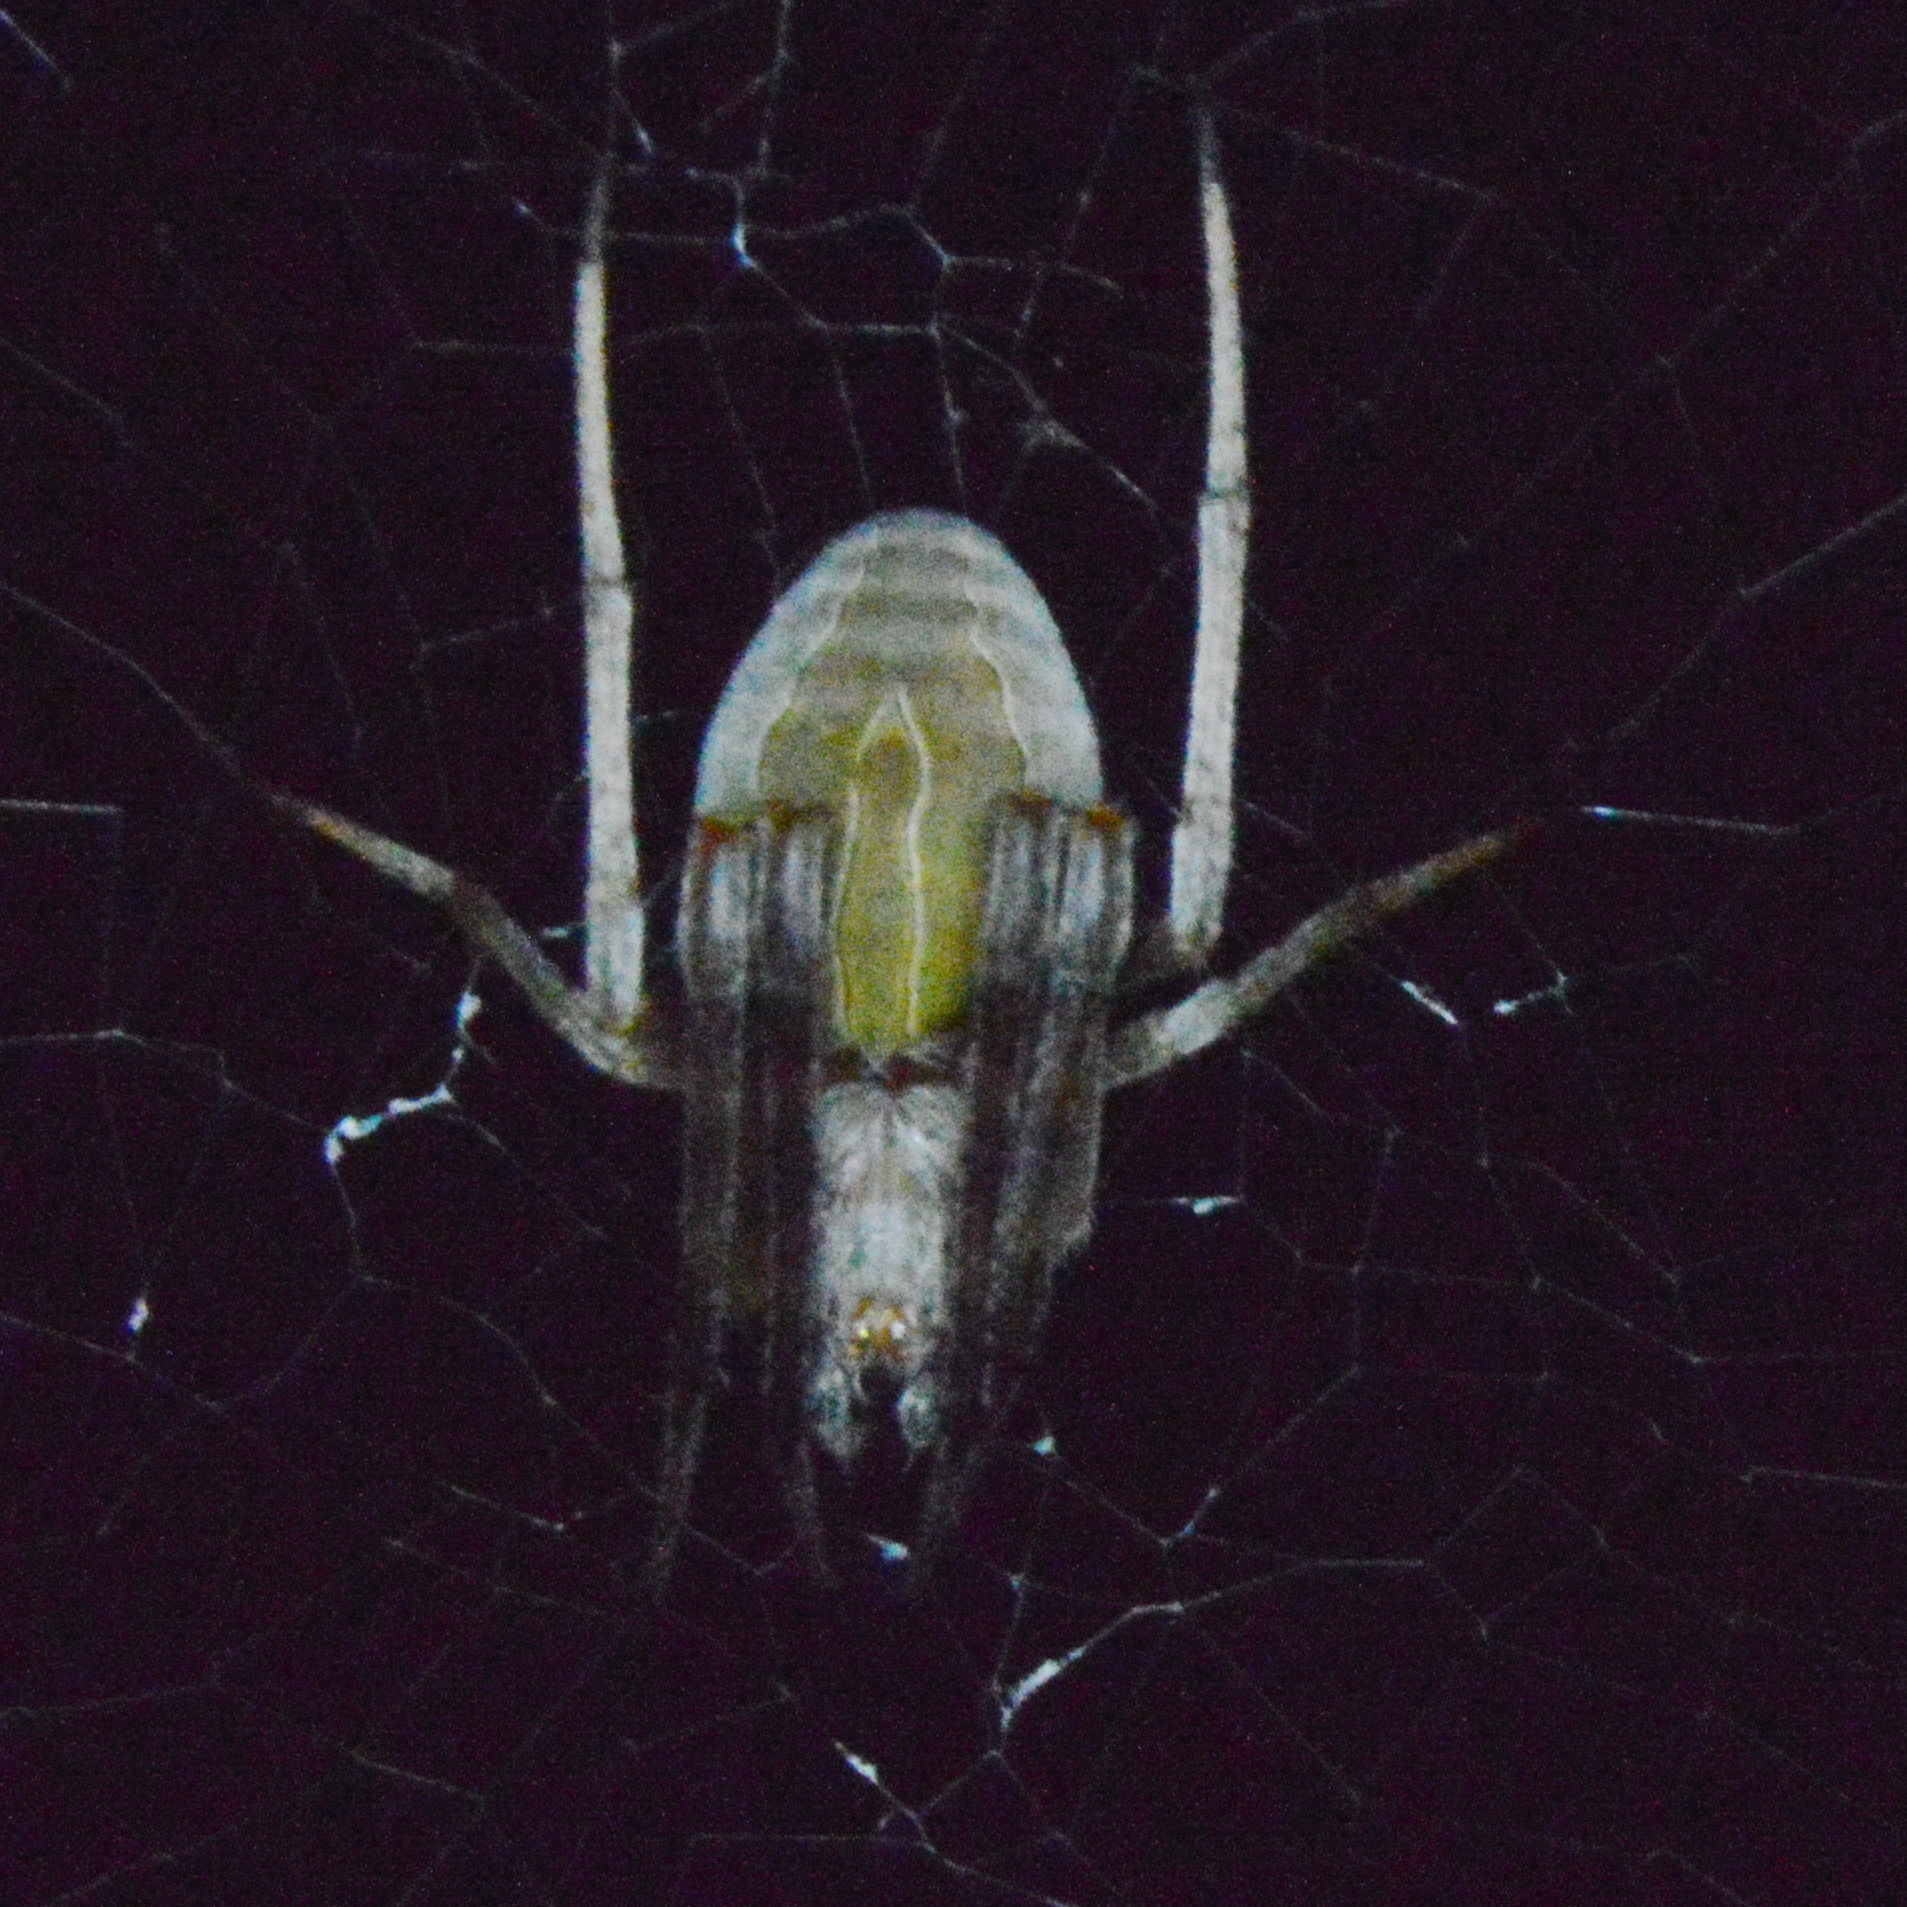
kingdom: Animalia
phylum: Arthropoda
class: Arachnida
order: Araneae
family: Araneidae
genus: Acacesia
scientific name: Acacesia hamata
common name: Orb weavers
